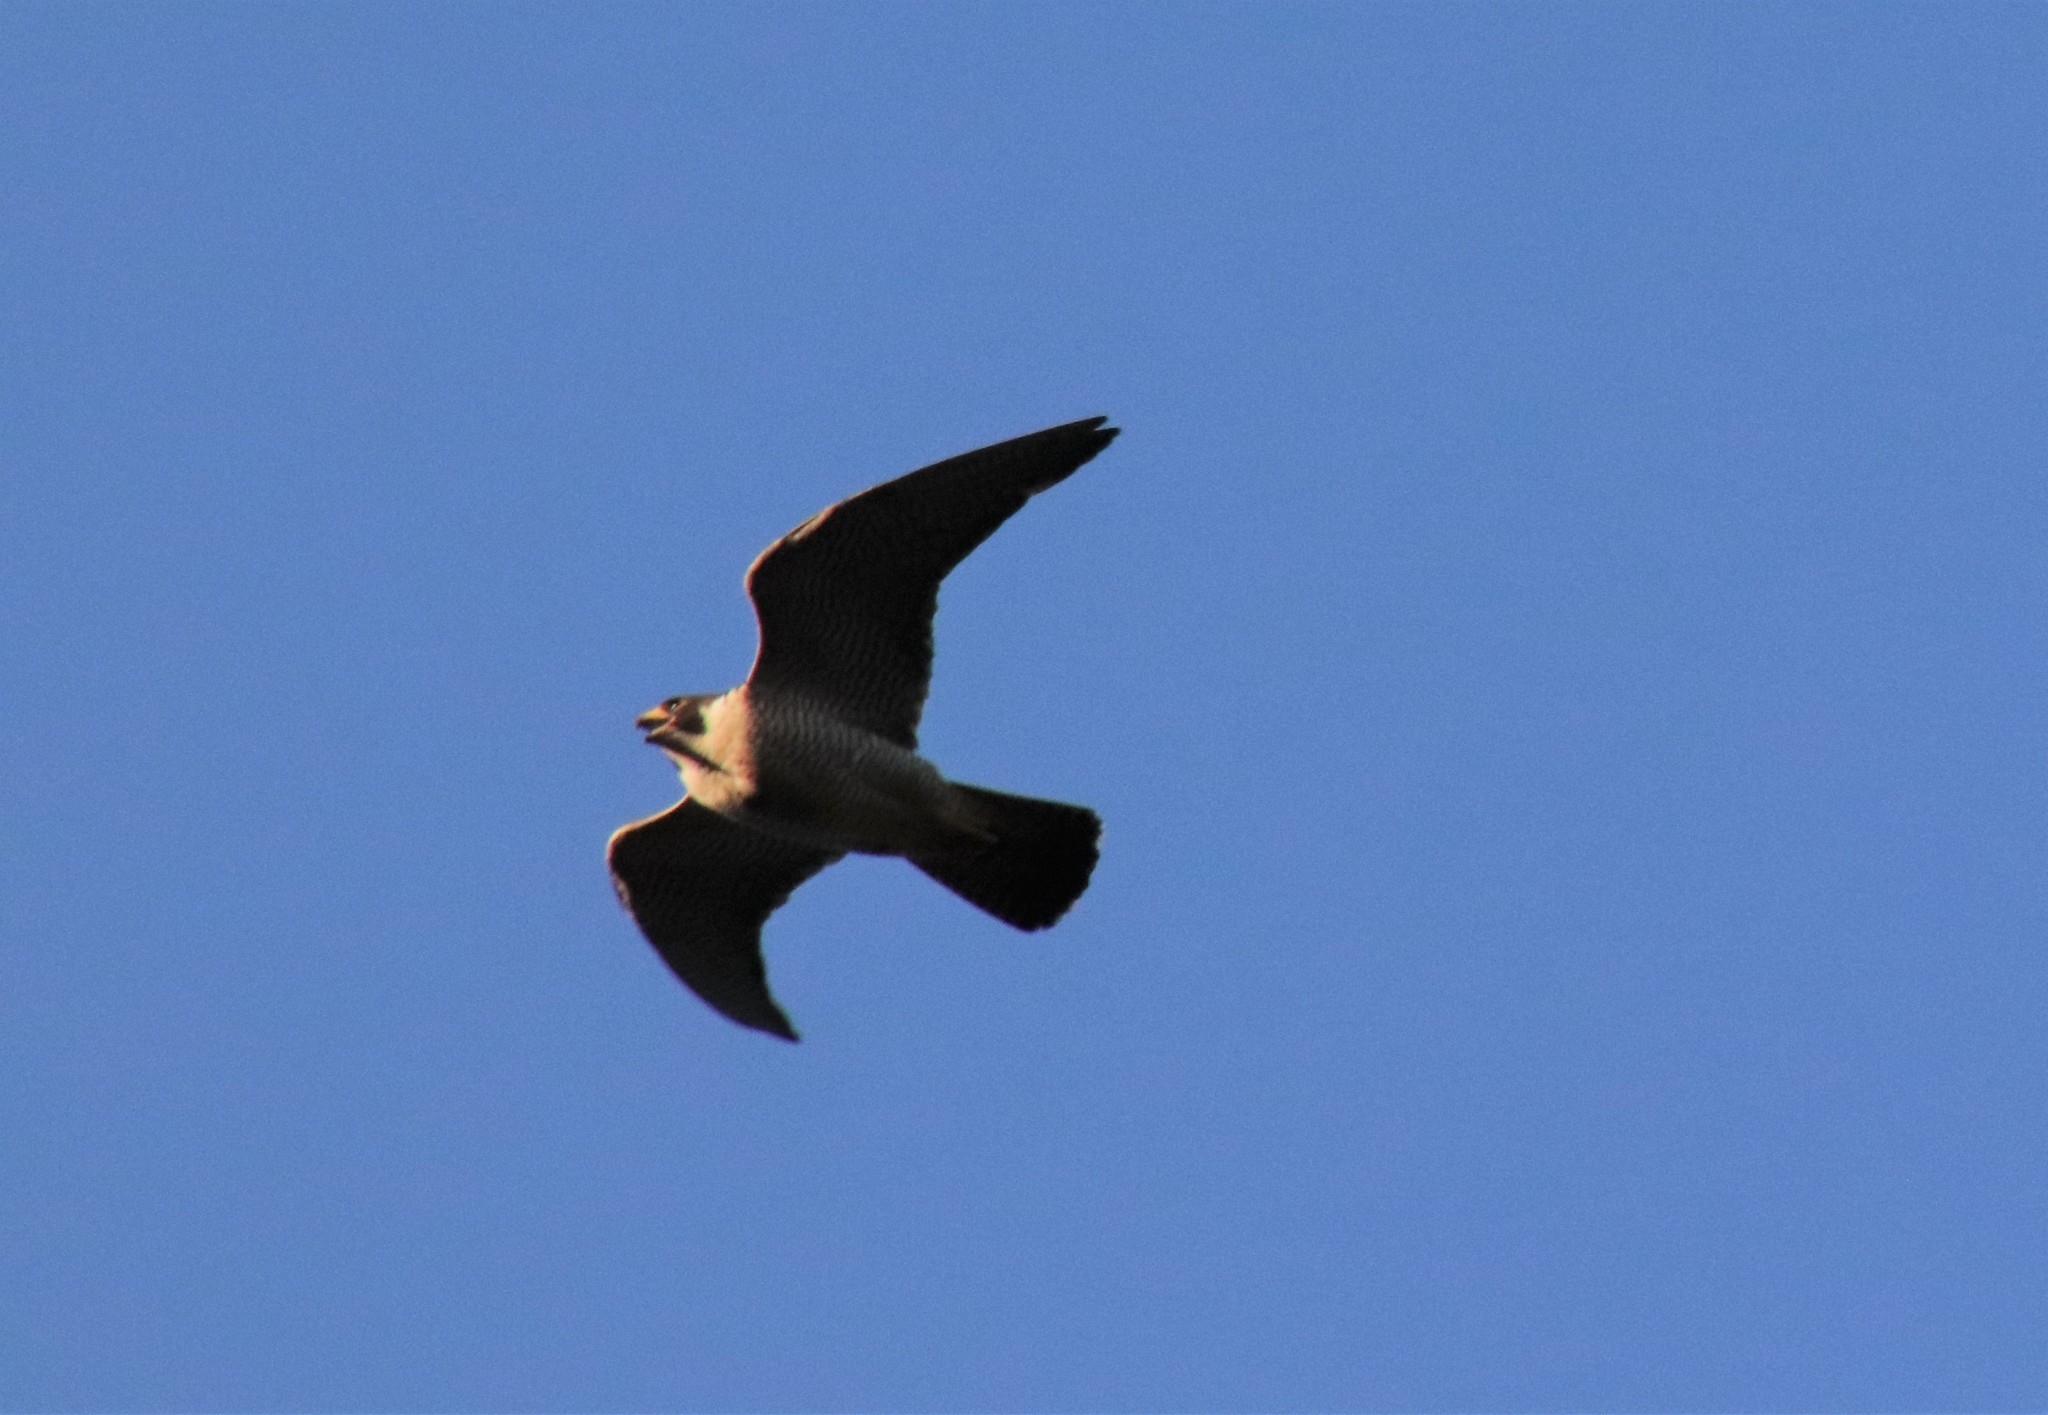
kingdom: Animalia
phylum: Chordata
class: Aves
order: Falconiformes
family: Falconidae
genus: Falco
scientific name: Falco peregrinus
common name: Peregrine falcon
